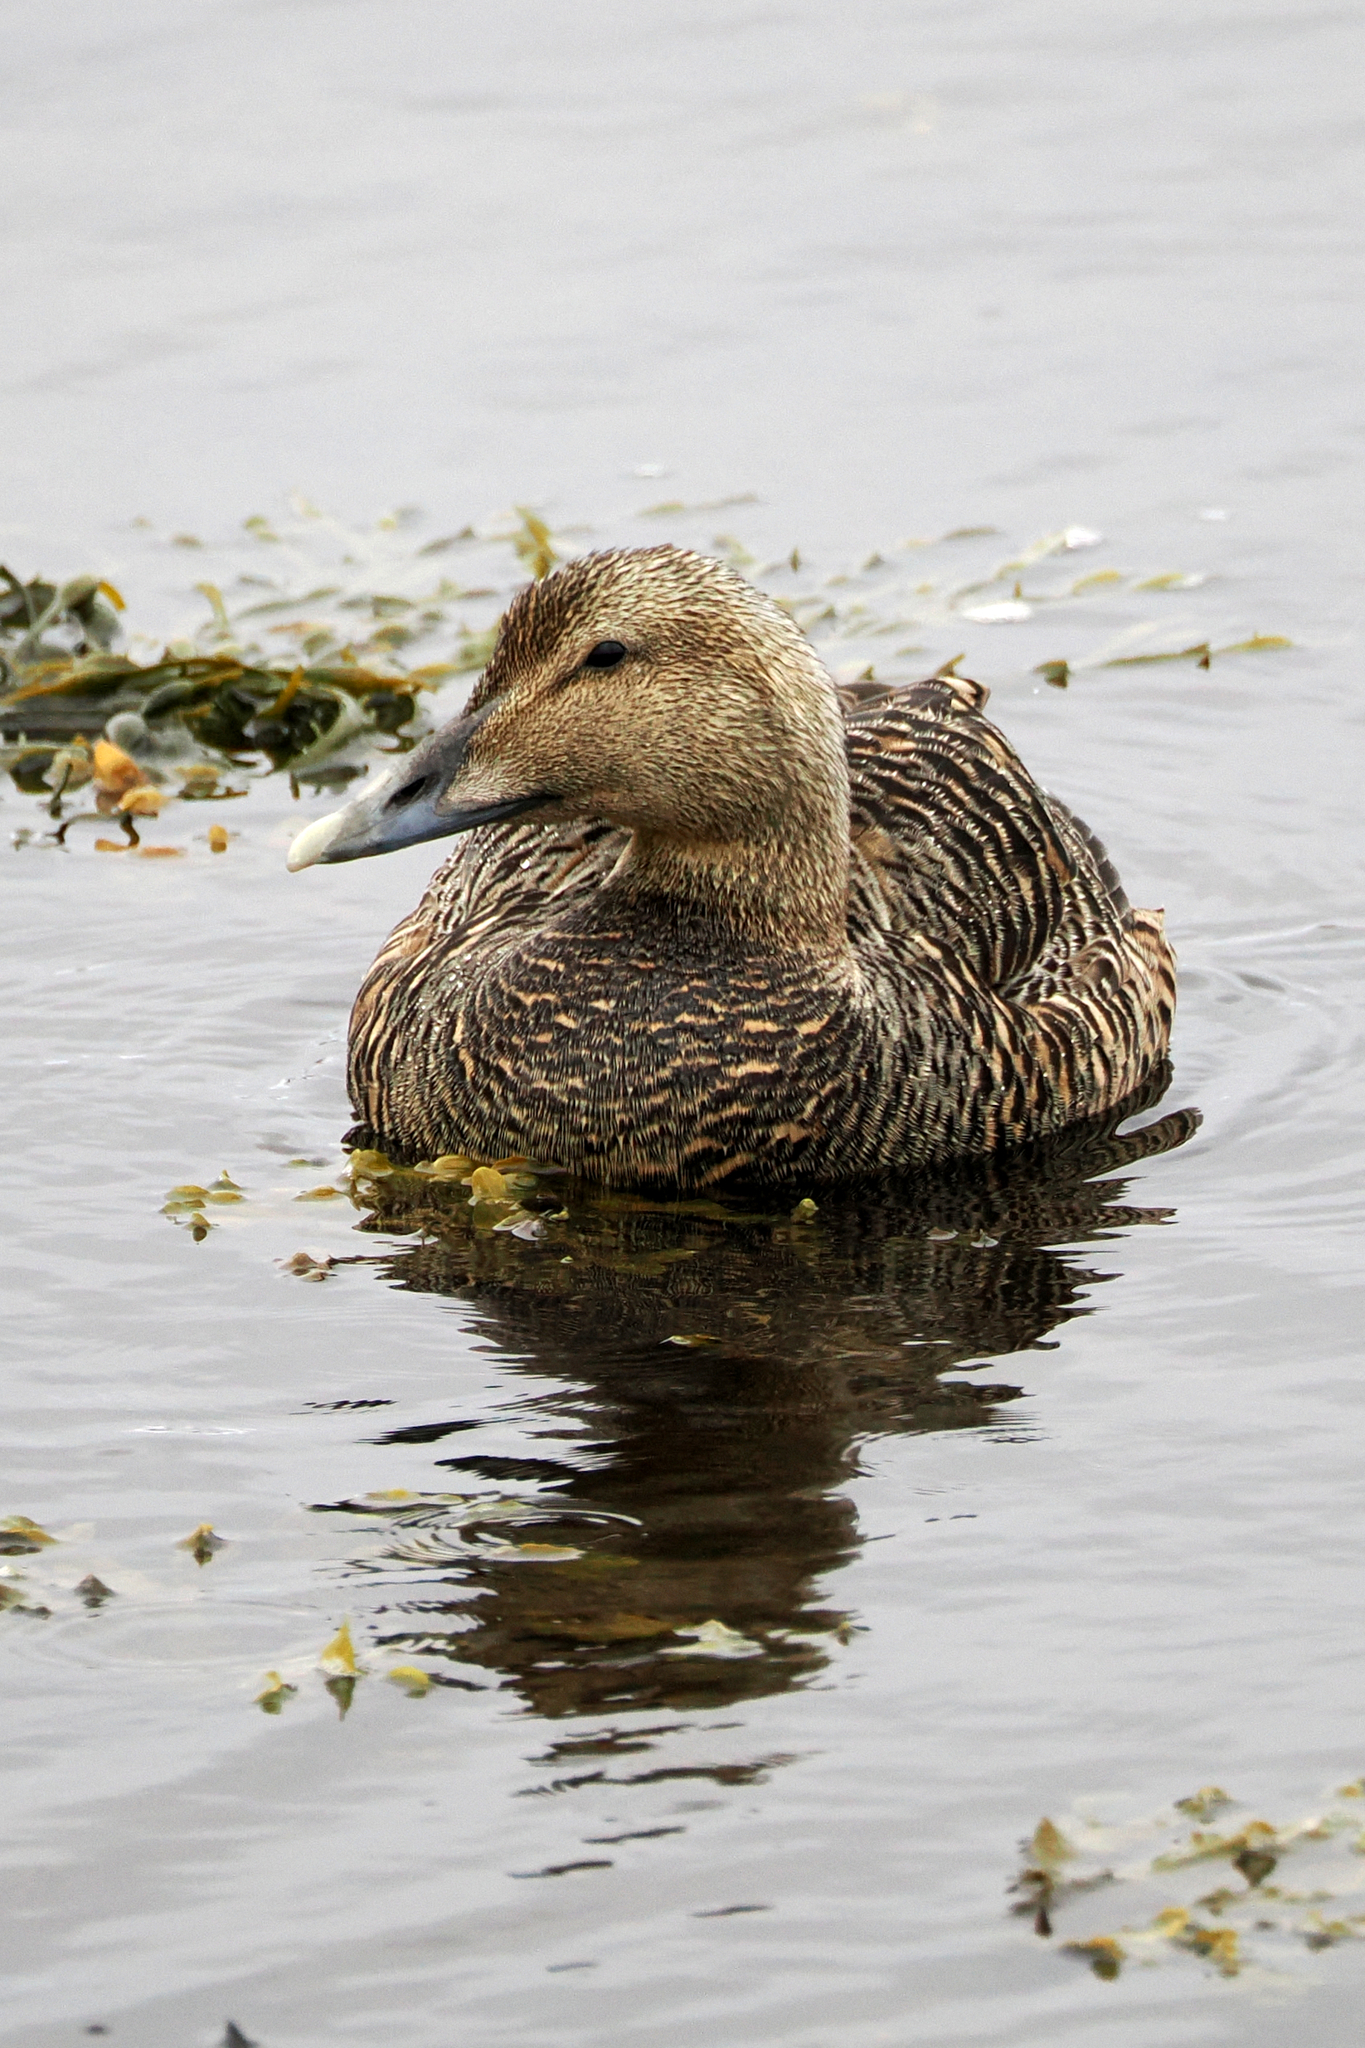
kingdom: Animalia
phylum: Chordata
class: Aves
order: Anseriformes
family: Anatidae
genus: Somateria
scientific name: Somateria mollissima
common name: Common eider
